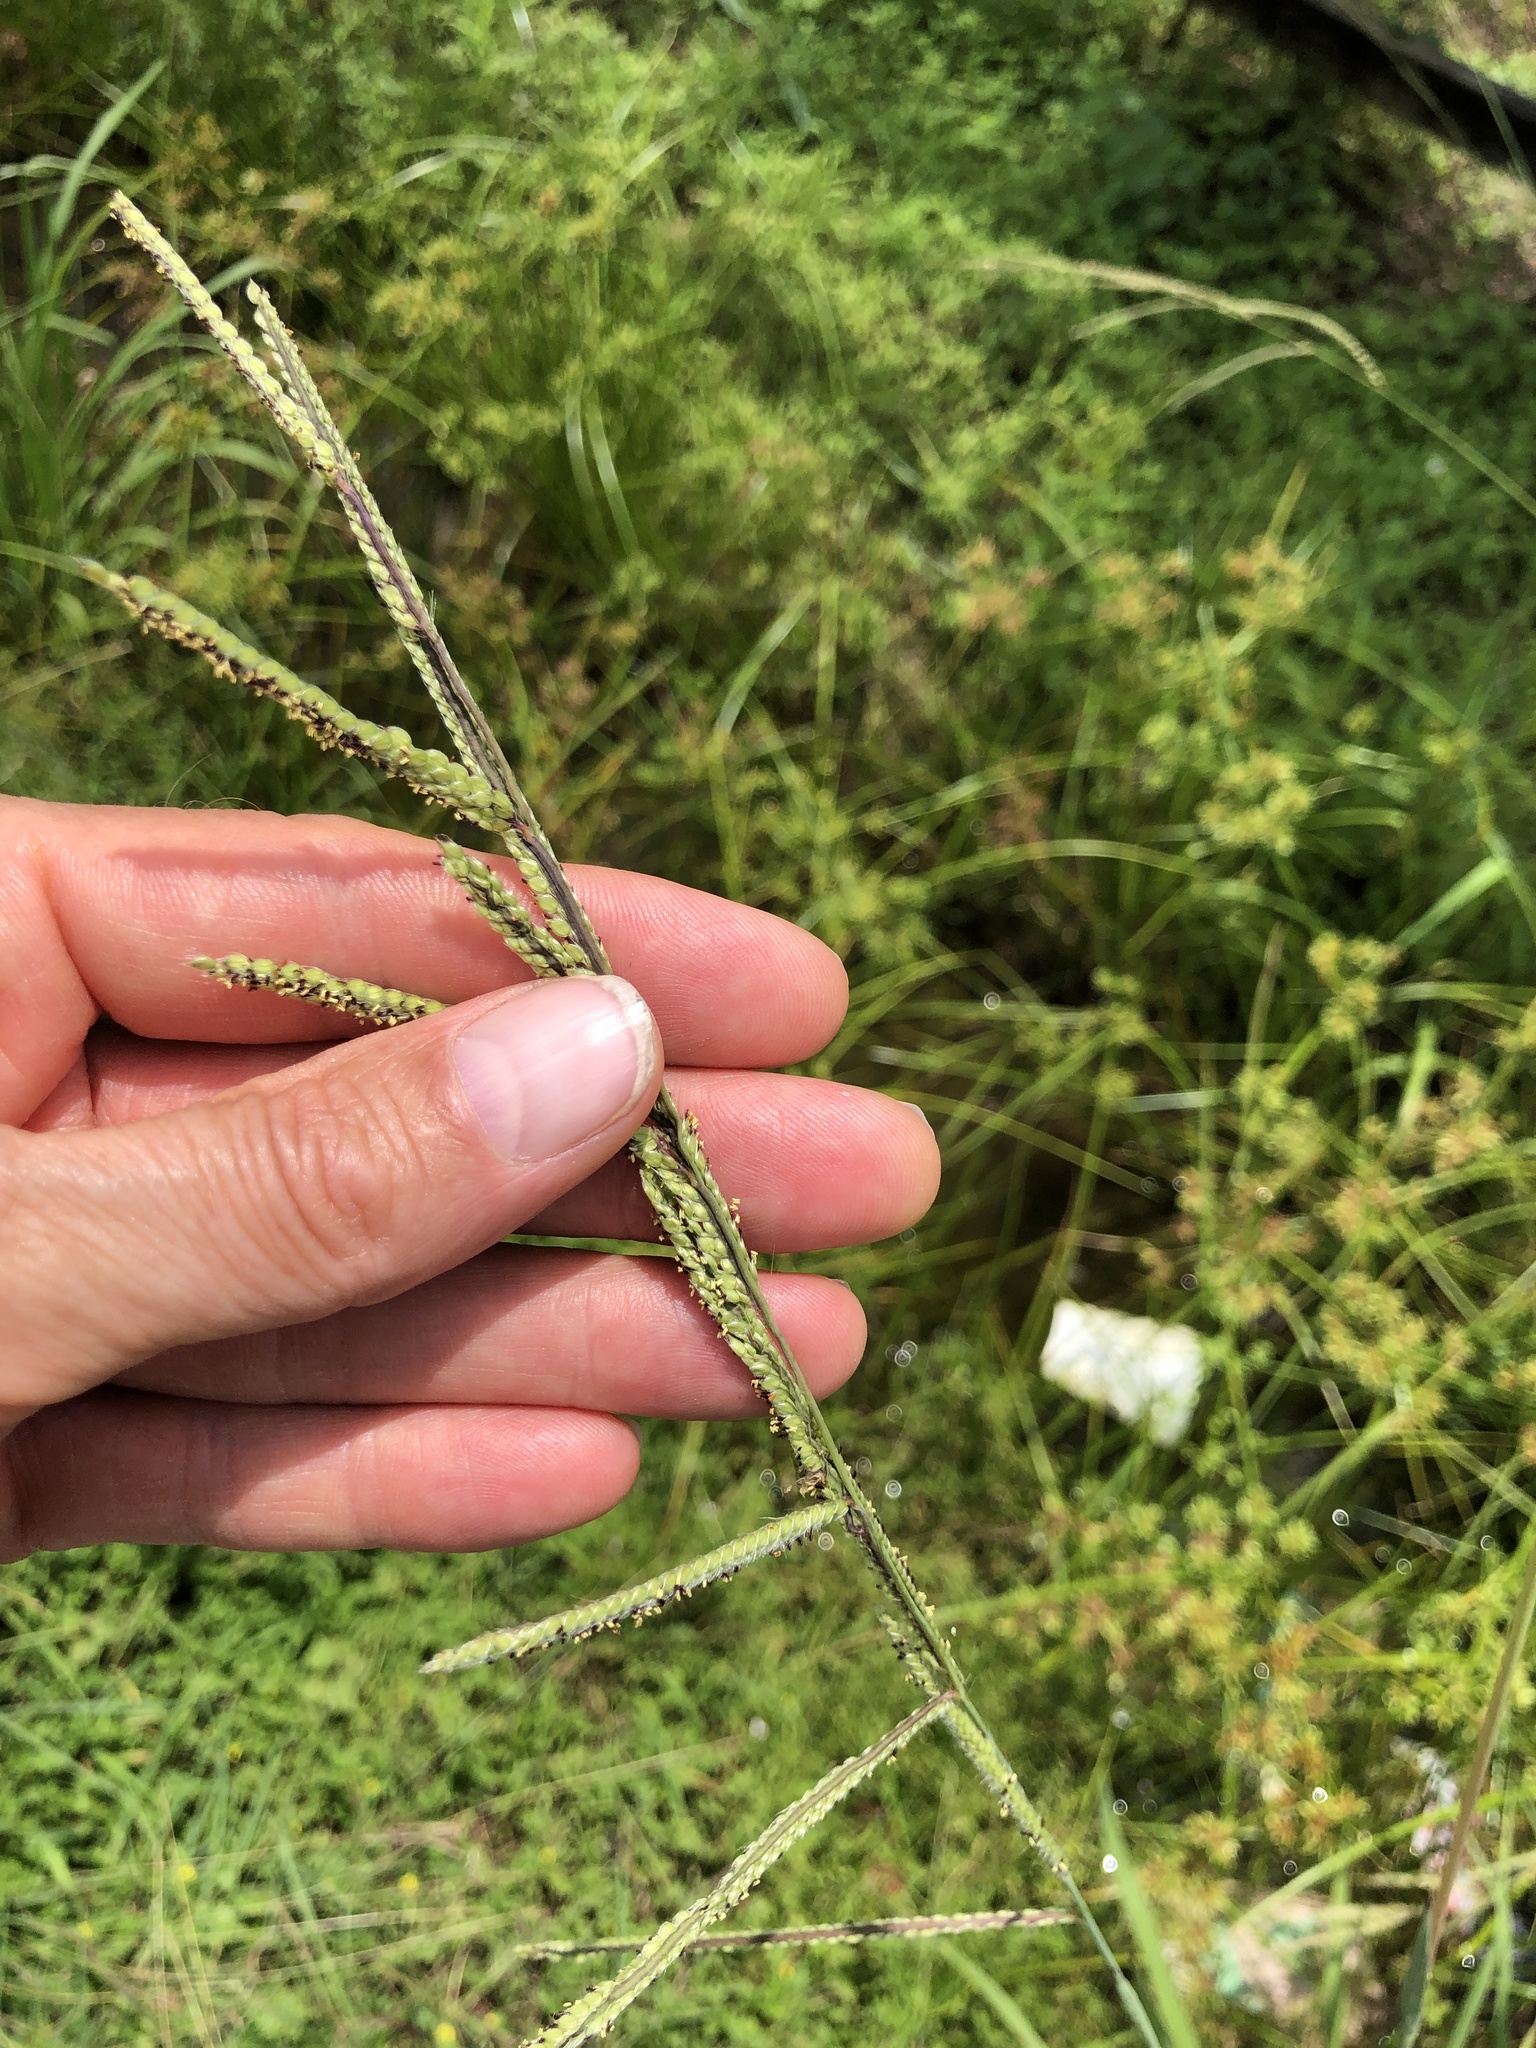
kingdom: Plantae
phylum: Tracheophyta
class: Liliopsida
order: Poales
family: Poaceae
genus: Paspalum
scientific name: Paspalum urvillei
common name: Vasey's grass
